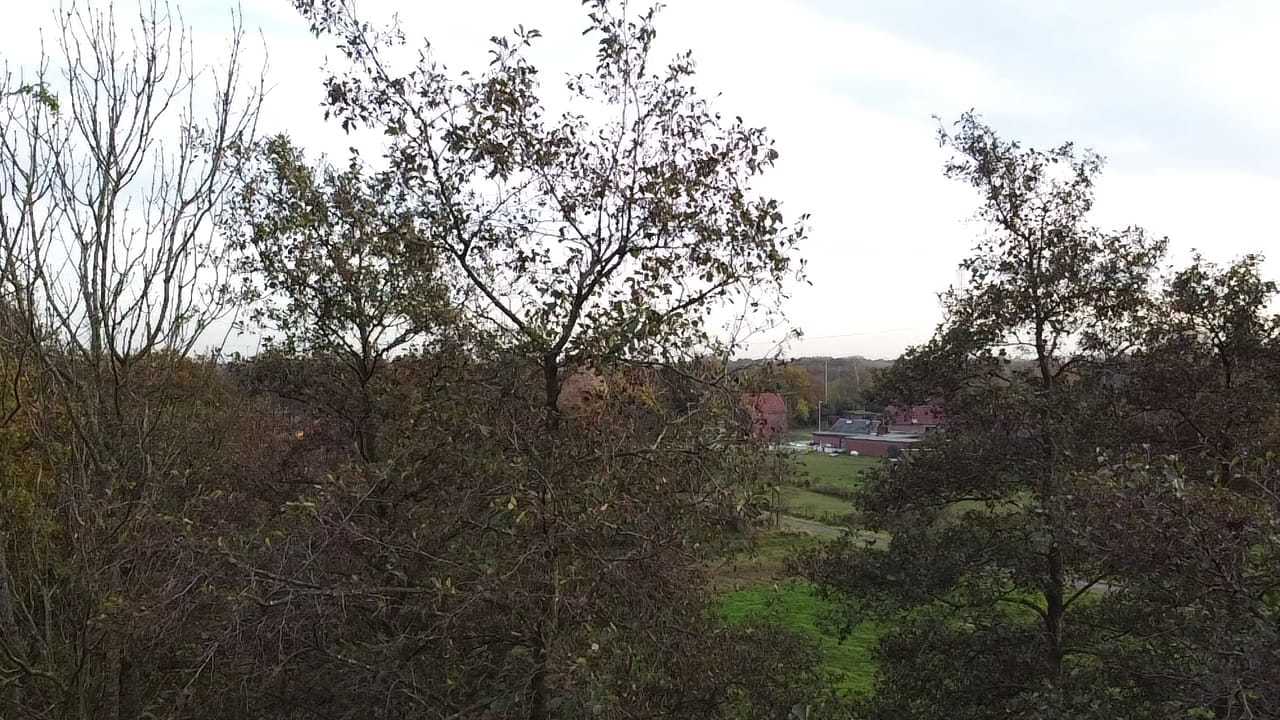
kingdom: Animalia
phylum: Arthropoda
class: Insecta
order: Hymenoptera
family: Vespidae
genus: Vespa
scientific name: Vespa velutina
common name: Asian hornet
